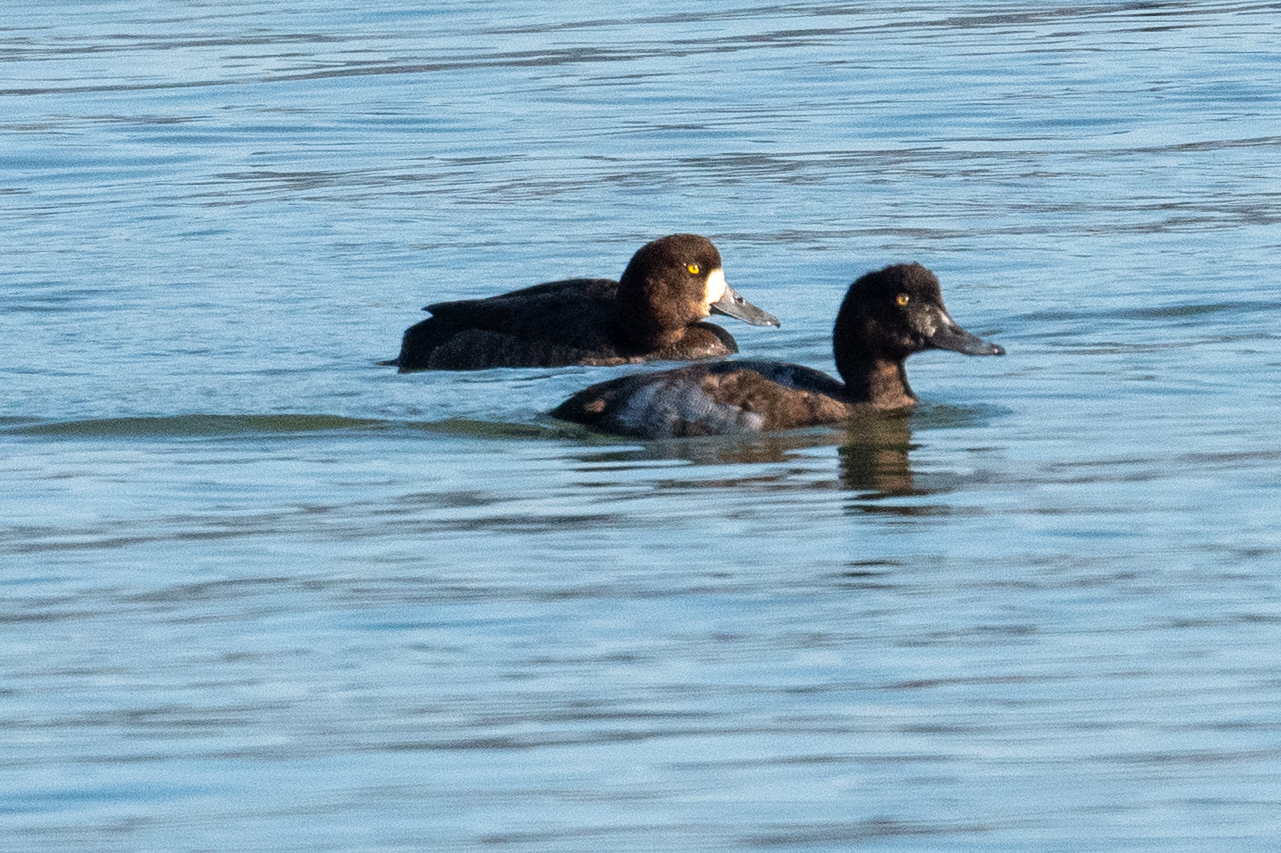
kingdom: Animalia
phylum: Chordata
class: Aves
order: Anseriformes
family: Anatidae
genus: Aythya
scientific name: Aythya marila
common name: Greater scaup
